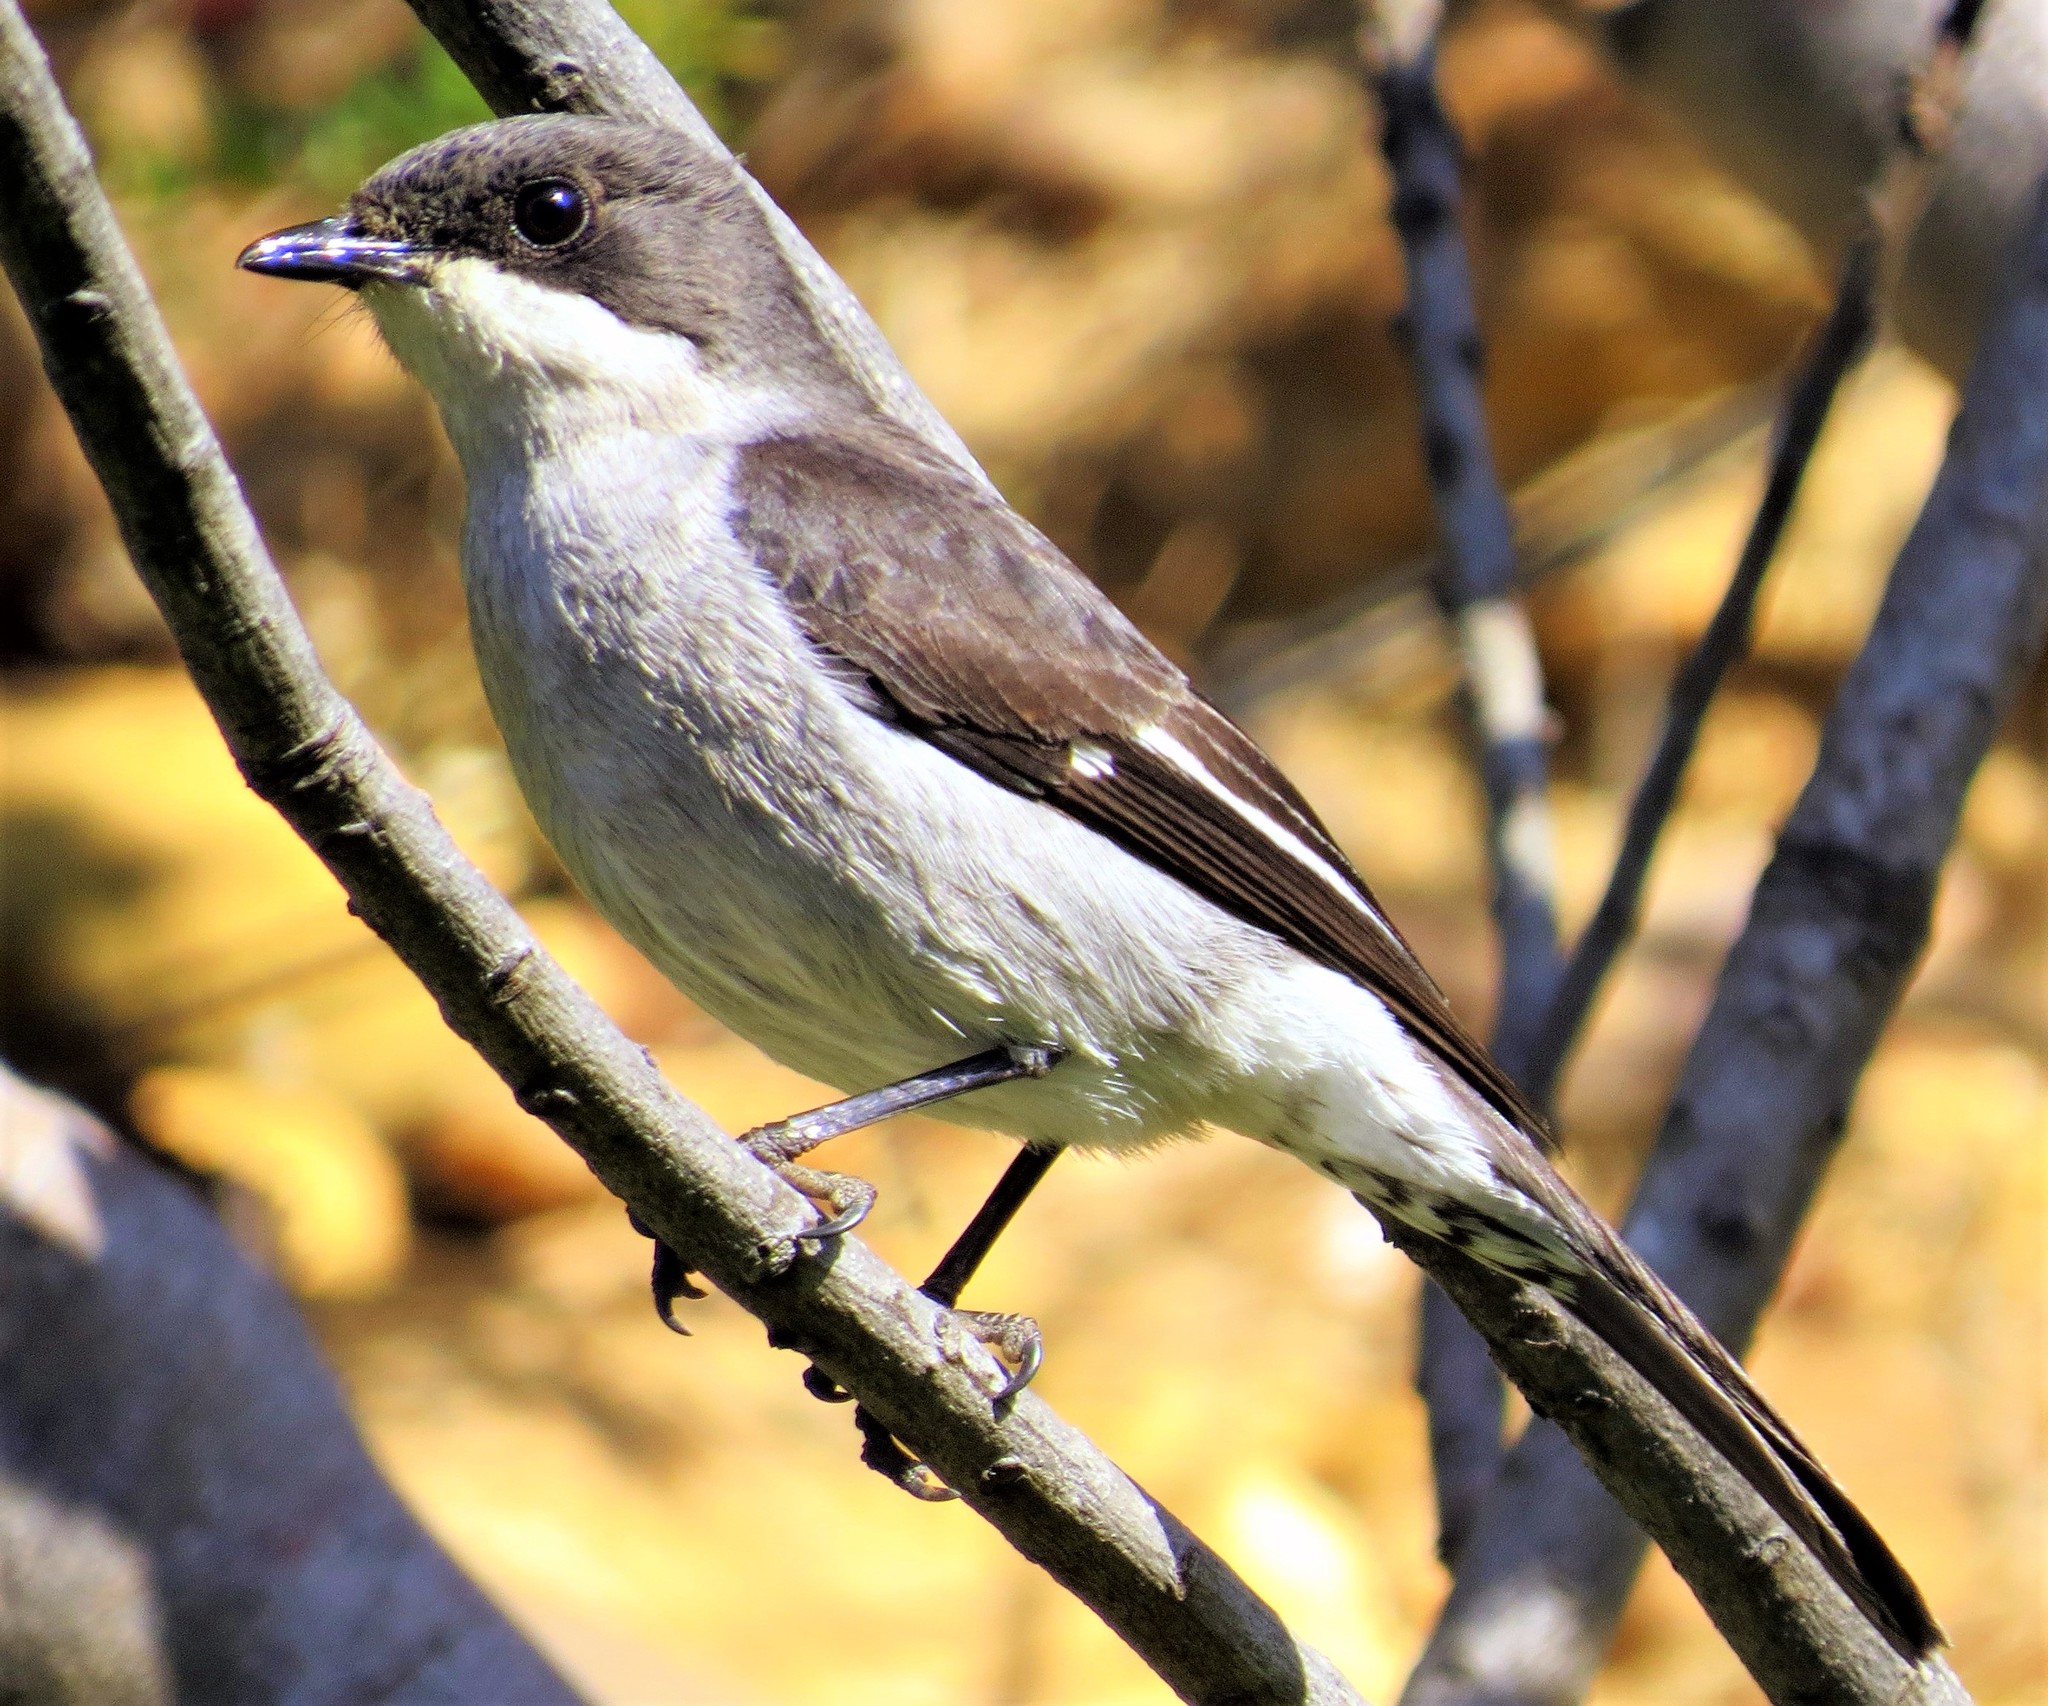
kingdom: Animalia
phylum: Chordata
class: Aves
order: Passeriformes
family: Muscicapidae
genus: Sigelus
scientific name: Sigelus silens
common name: Fiscal flycatcher
